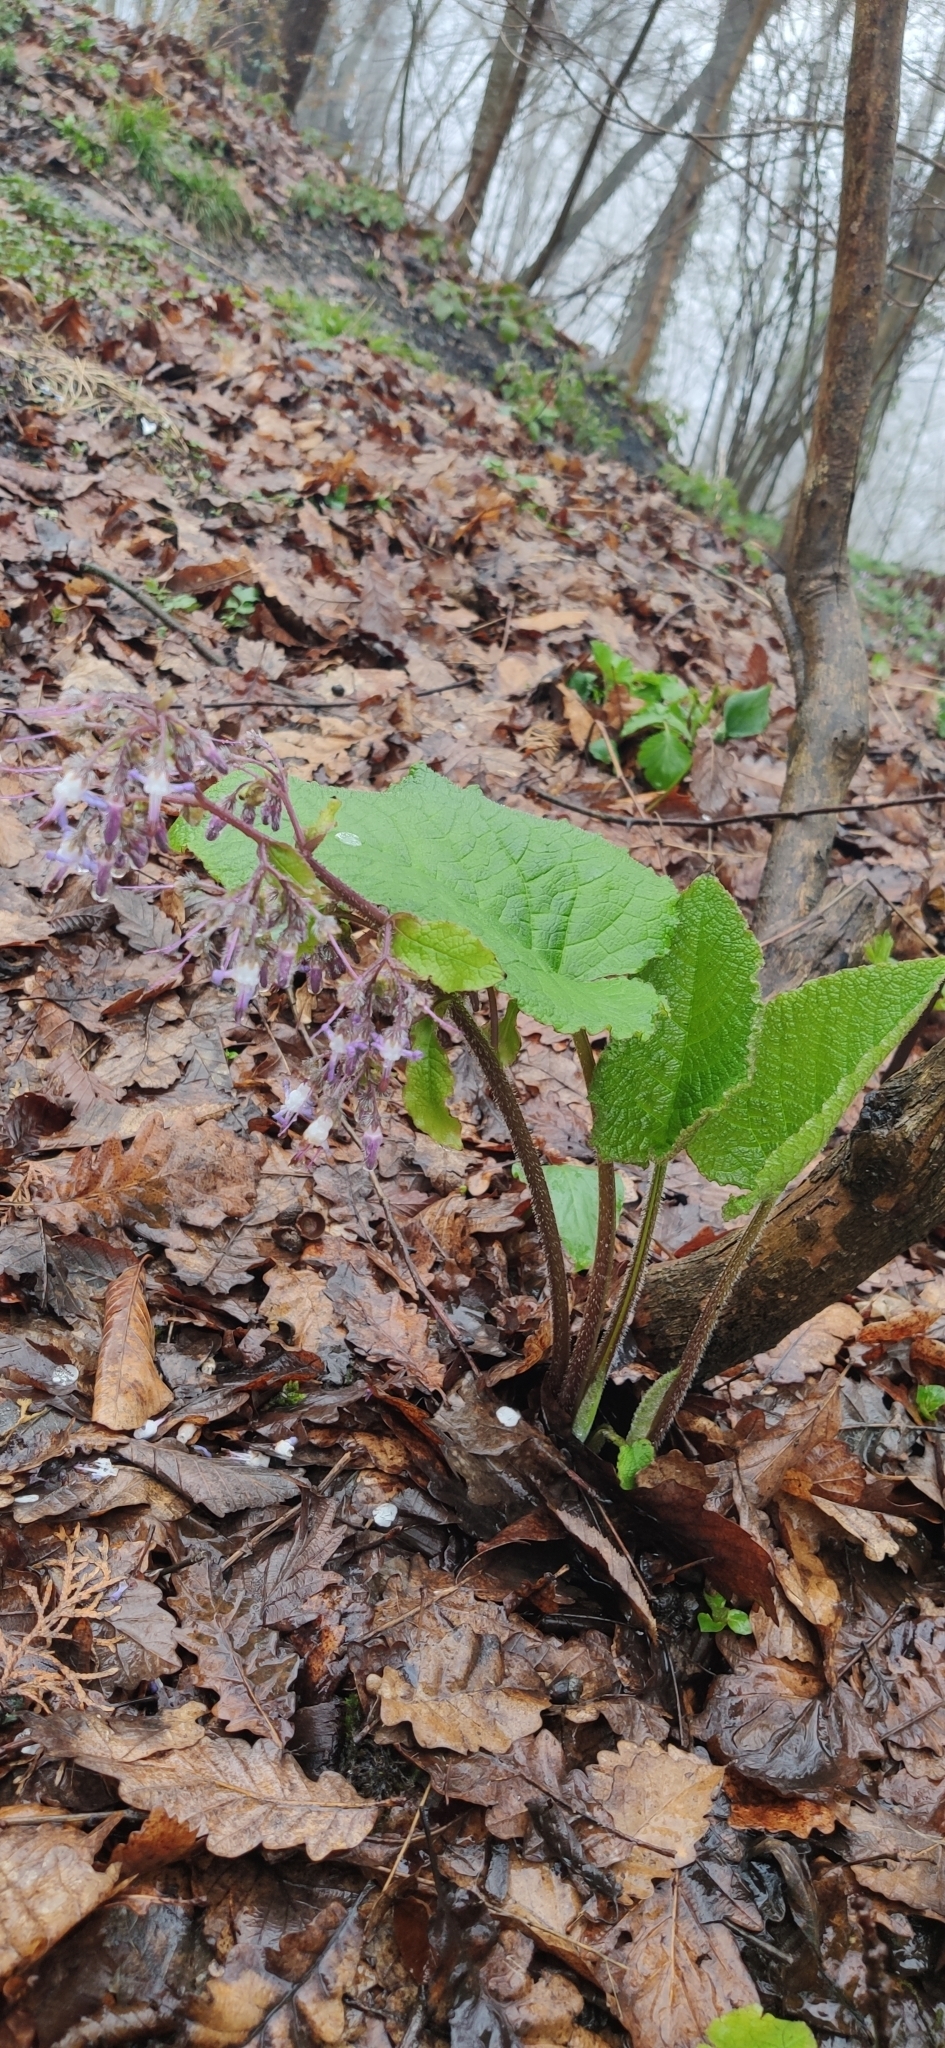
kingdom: Plantae
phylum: Tracheophyta
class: Magnoliopsida
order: Boraginales
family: Boraginaceae
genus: Trachystemon
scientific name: Trachystemon orientale
